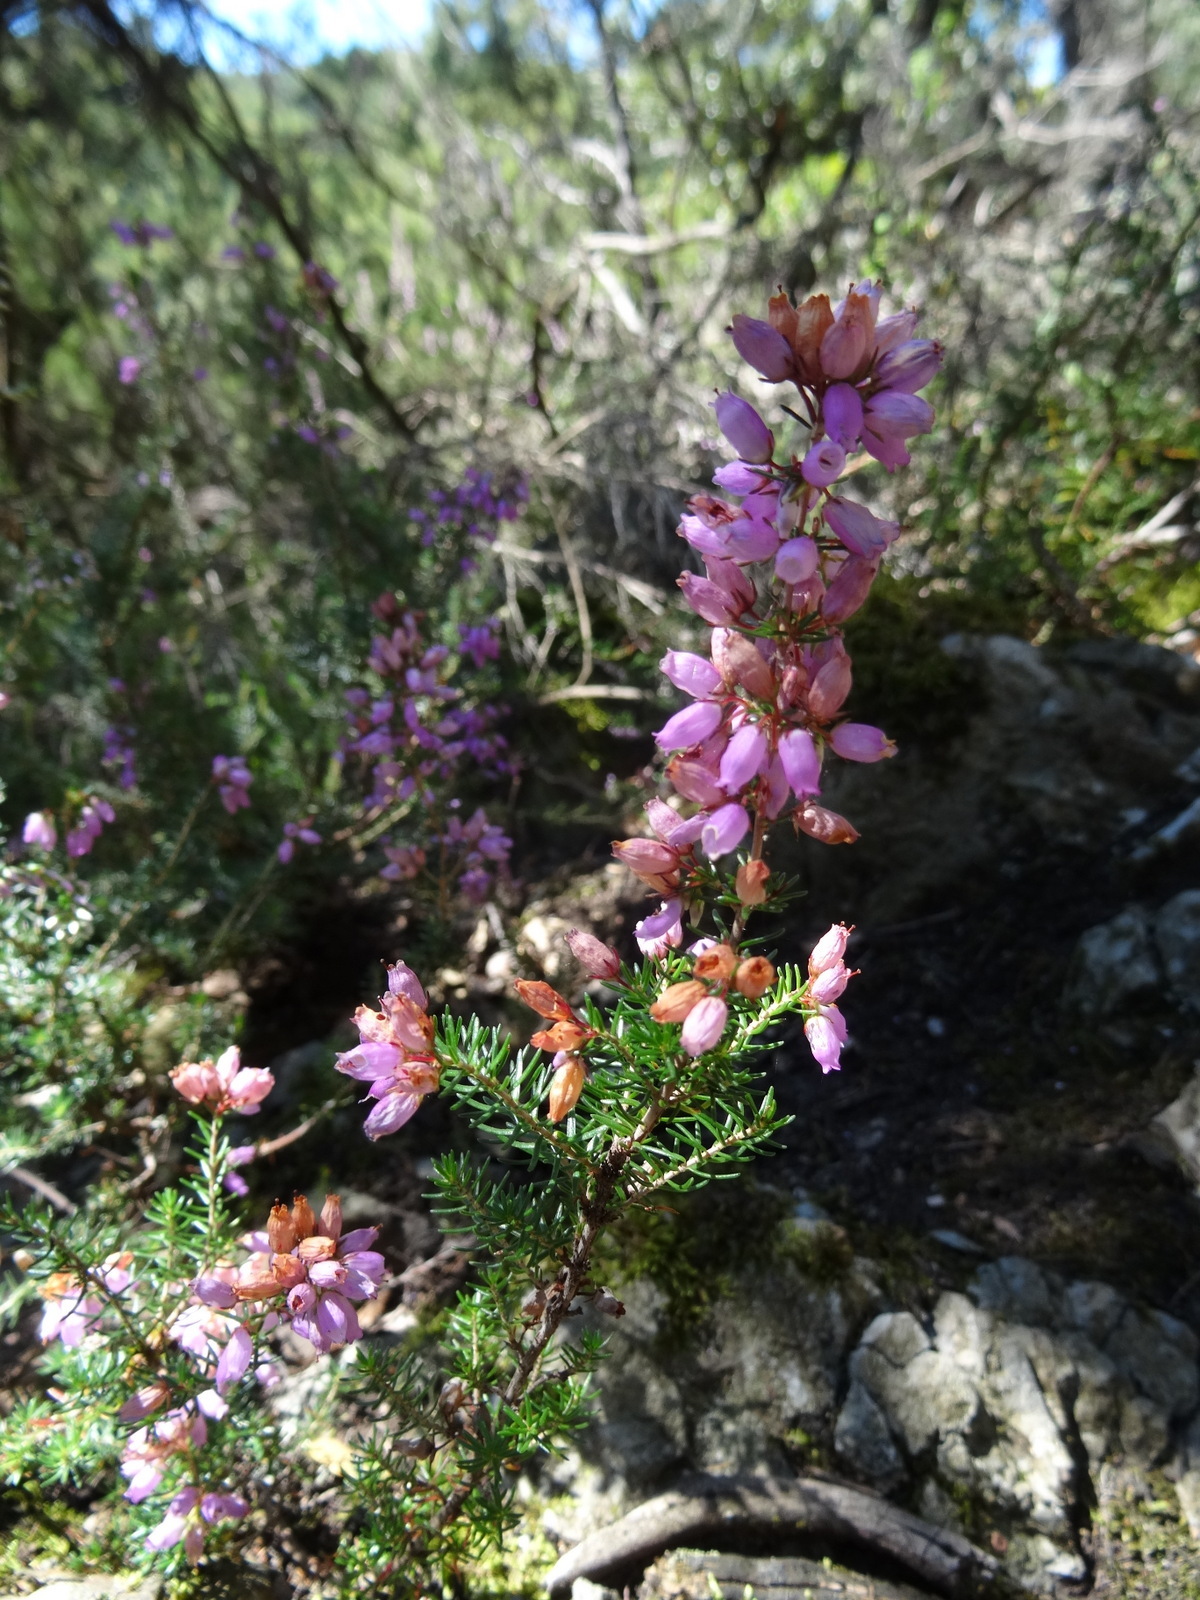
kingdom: Plantae
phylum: Tracheophyta
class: Magnoliopsida
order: Ericales
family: Ericaceae
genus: Erica
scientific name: Erica cinerea
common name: Bell heather
